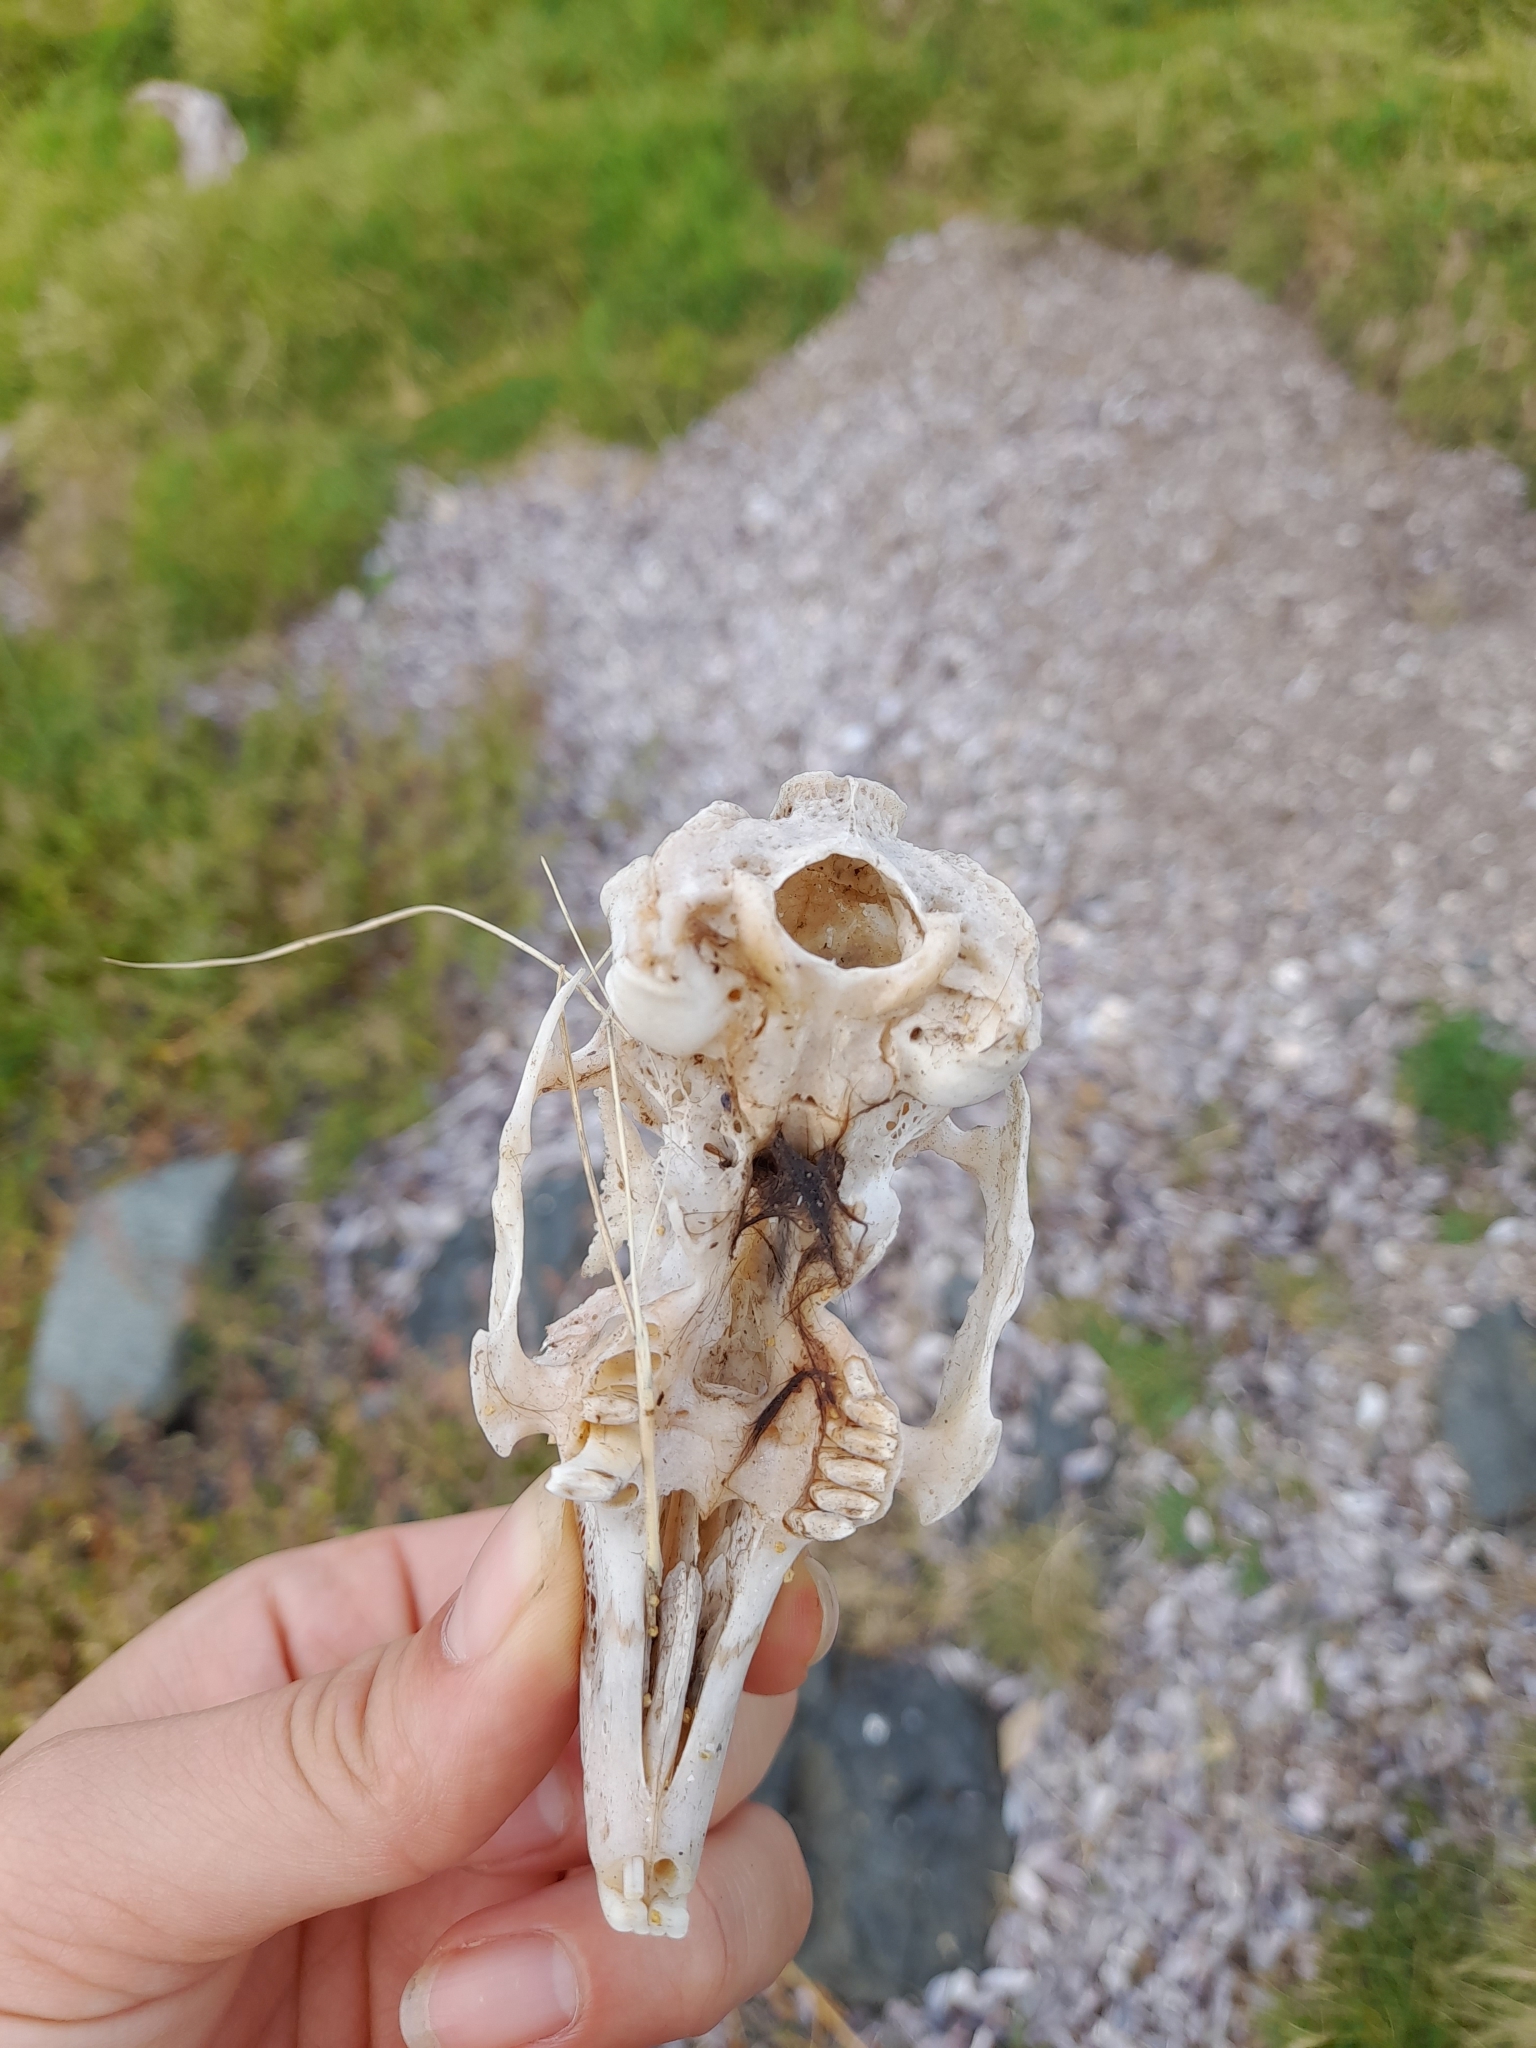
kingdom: Animalia
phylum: Chordata
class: Mammalia
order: Lagomorpha
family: Leporidae
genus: Oryctolagus
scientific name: Oryctolagus cuniculus
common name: European rabbit
